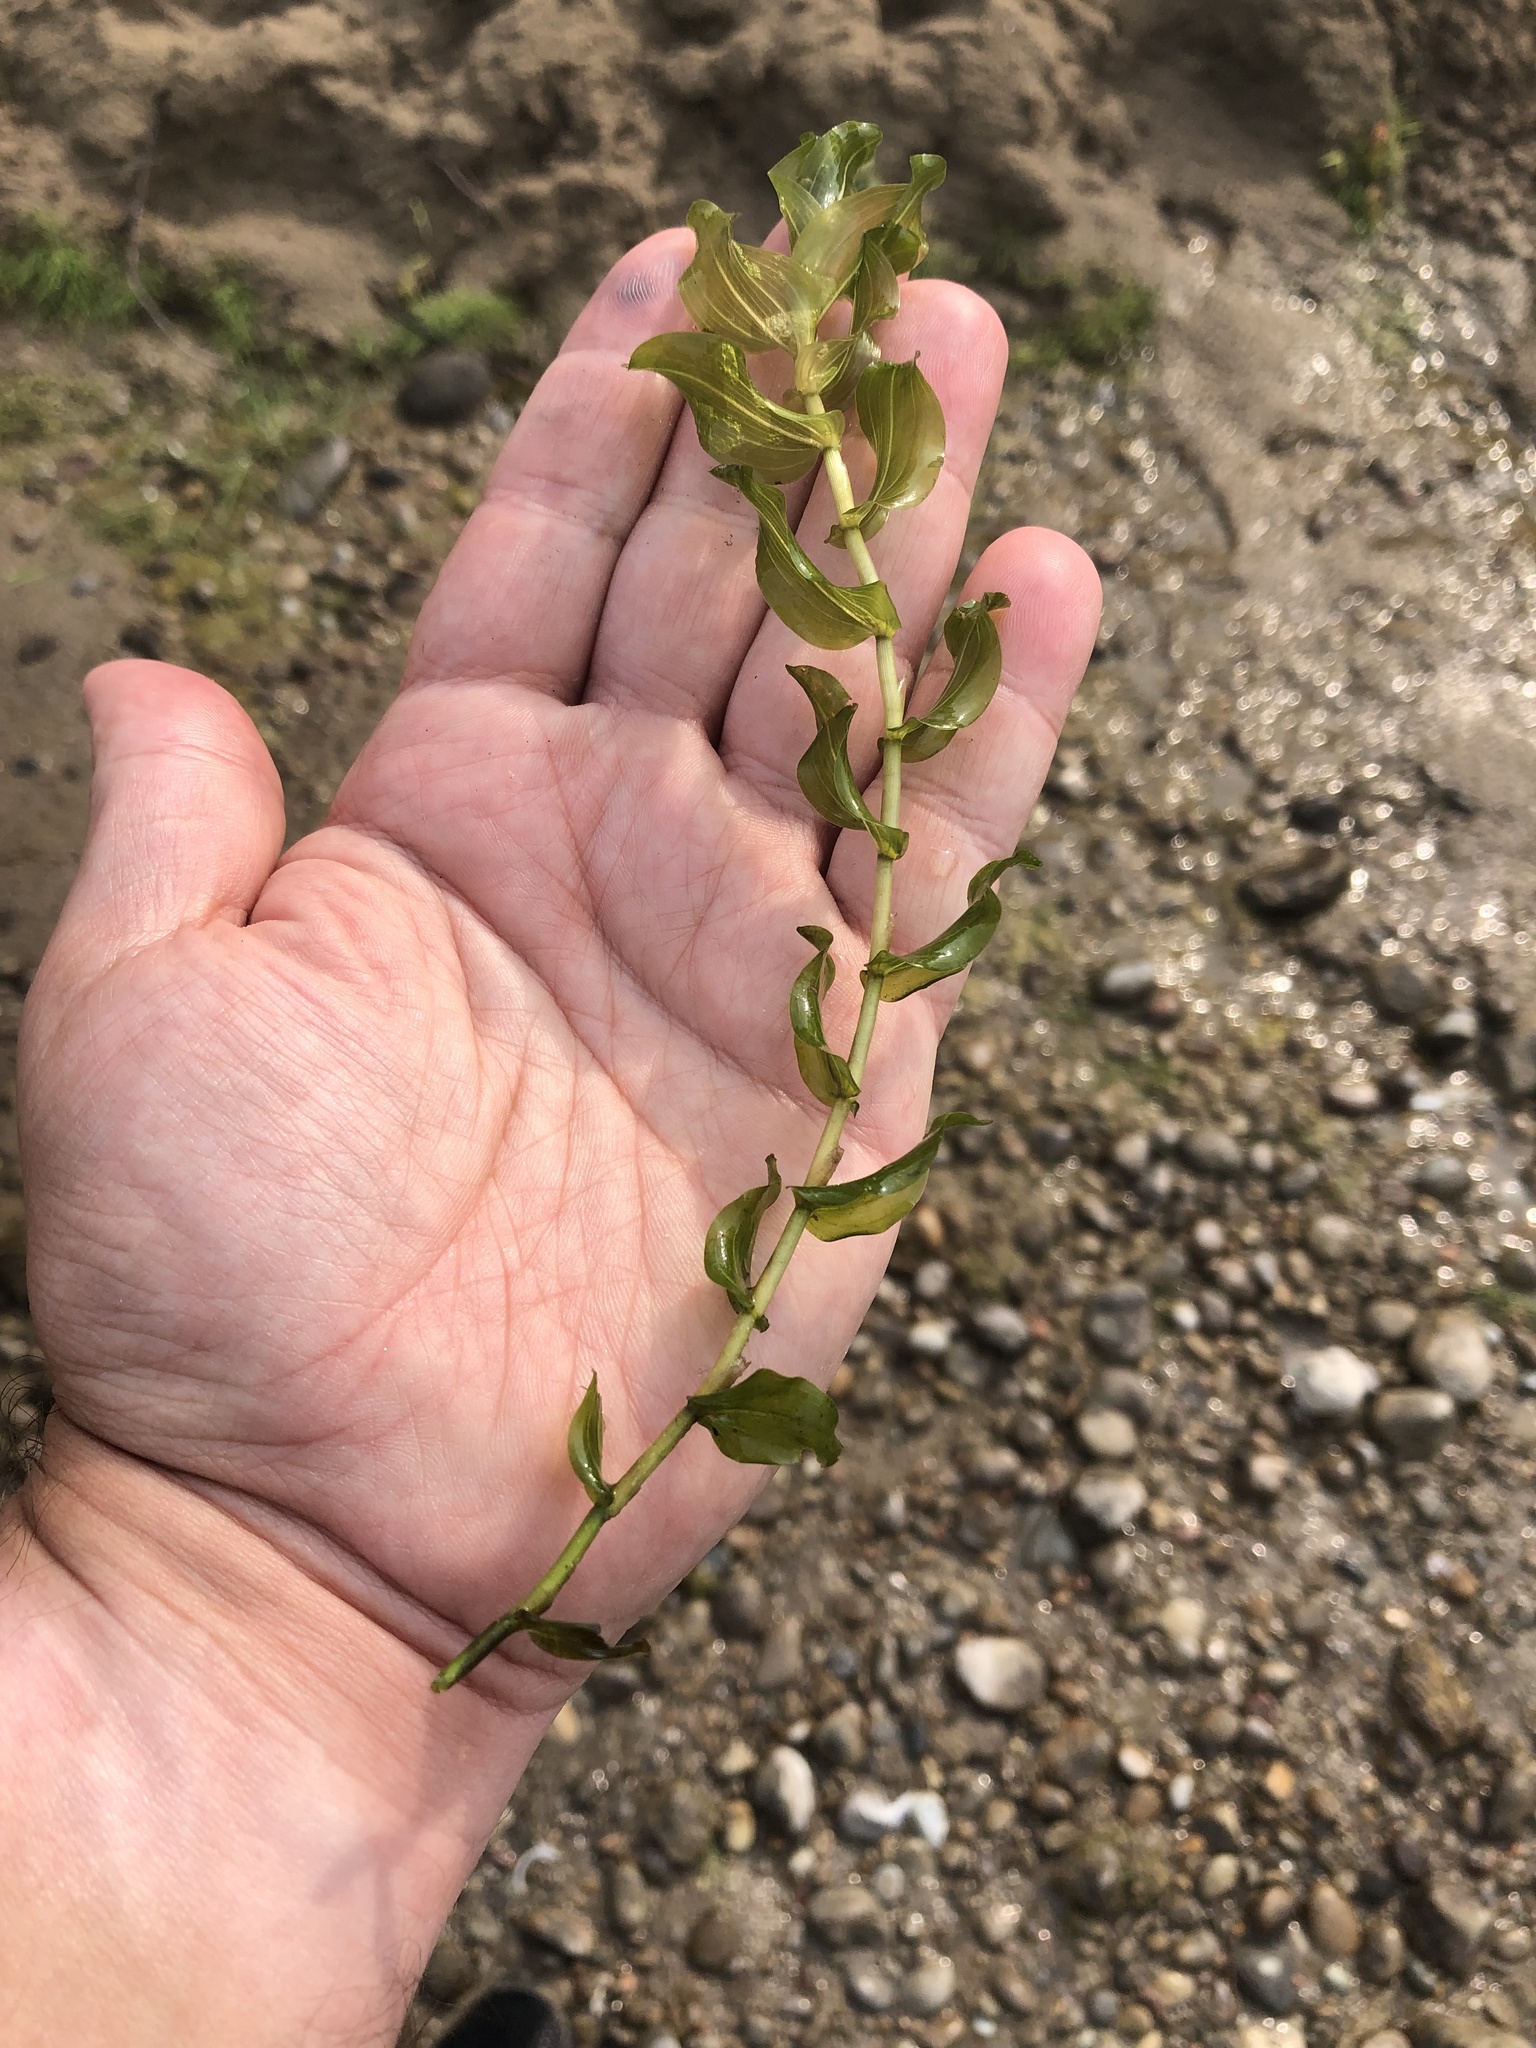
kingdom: Plantae
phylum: Tracheophyta
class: Liliopsida
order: Alismatales
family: Potamogetonaceae
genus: Potamogeton
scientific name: Potamogeton richardsonii
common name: Richardson's pondweed
